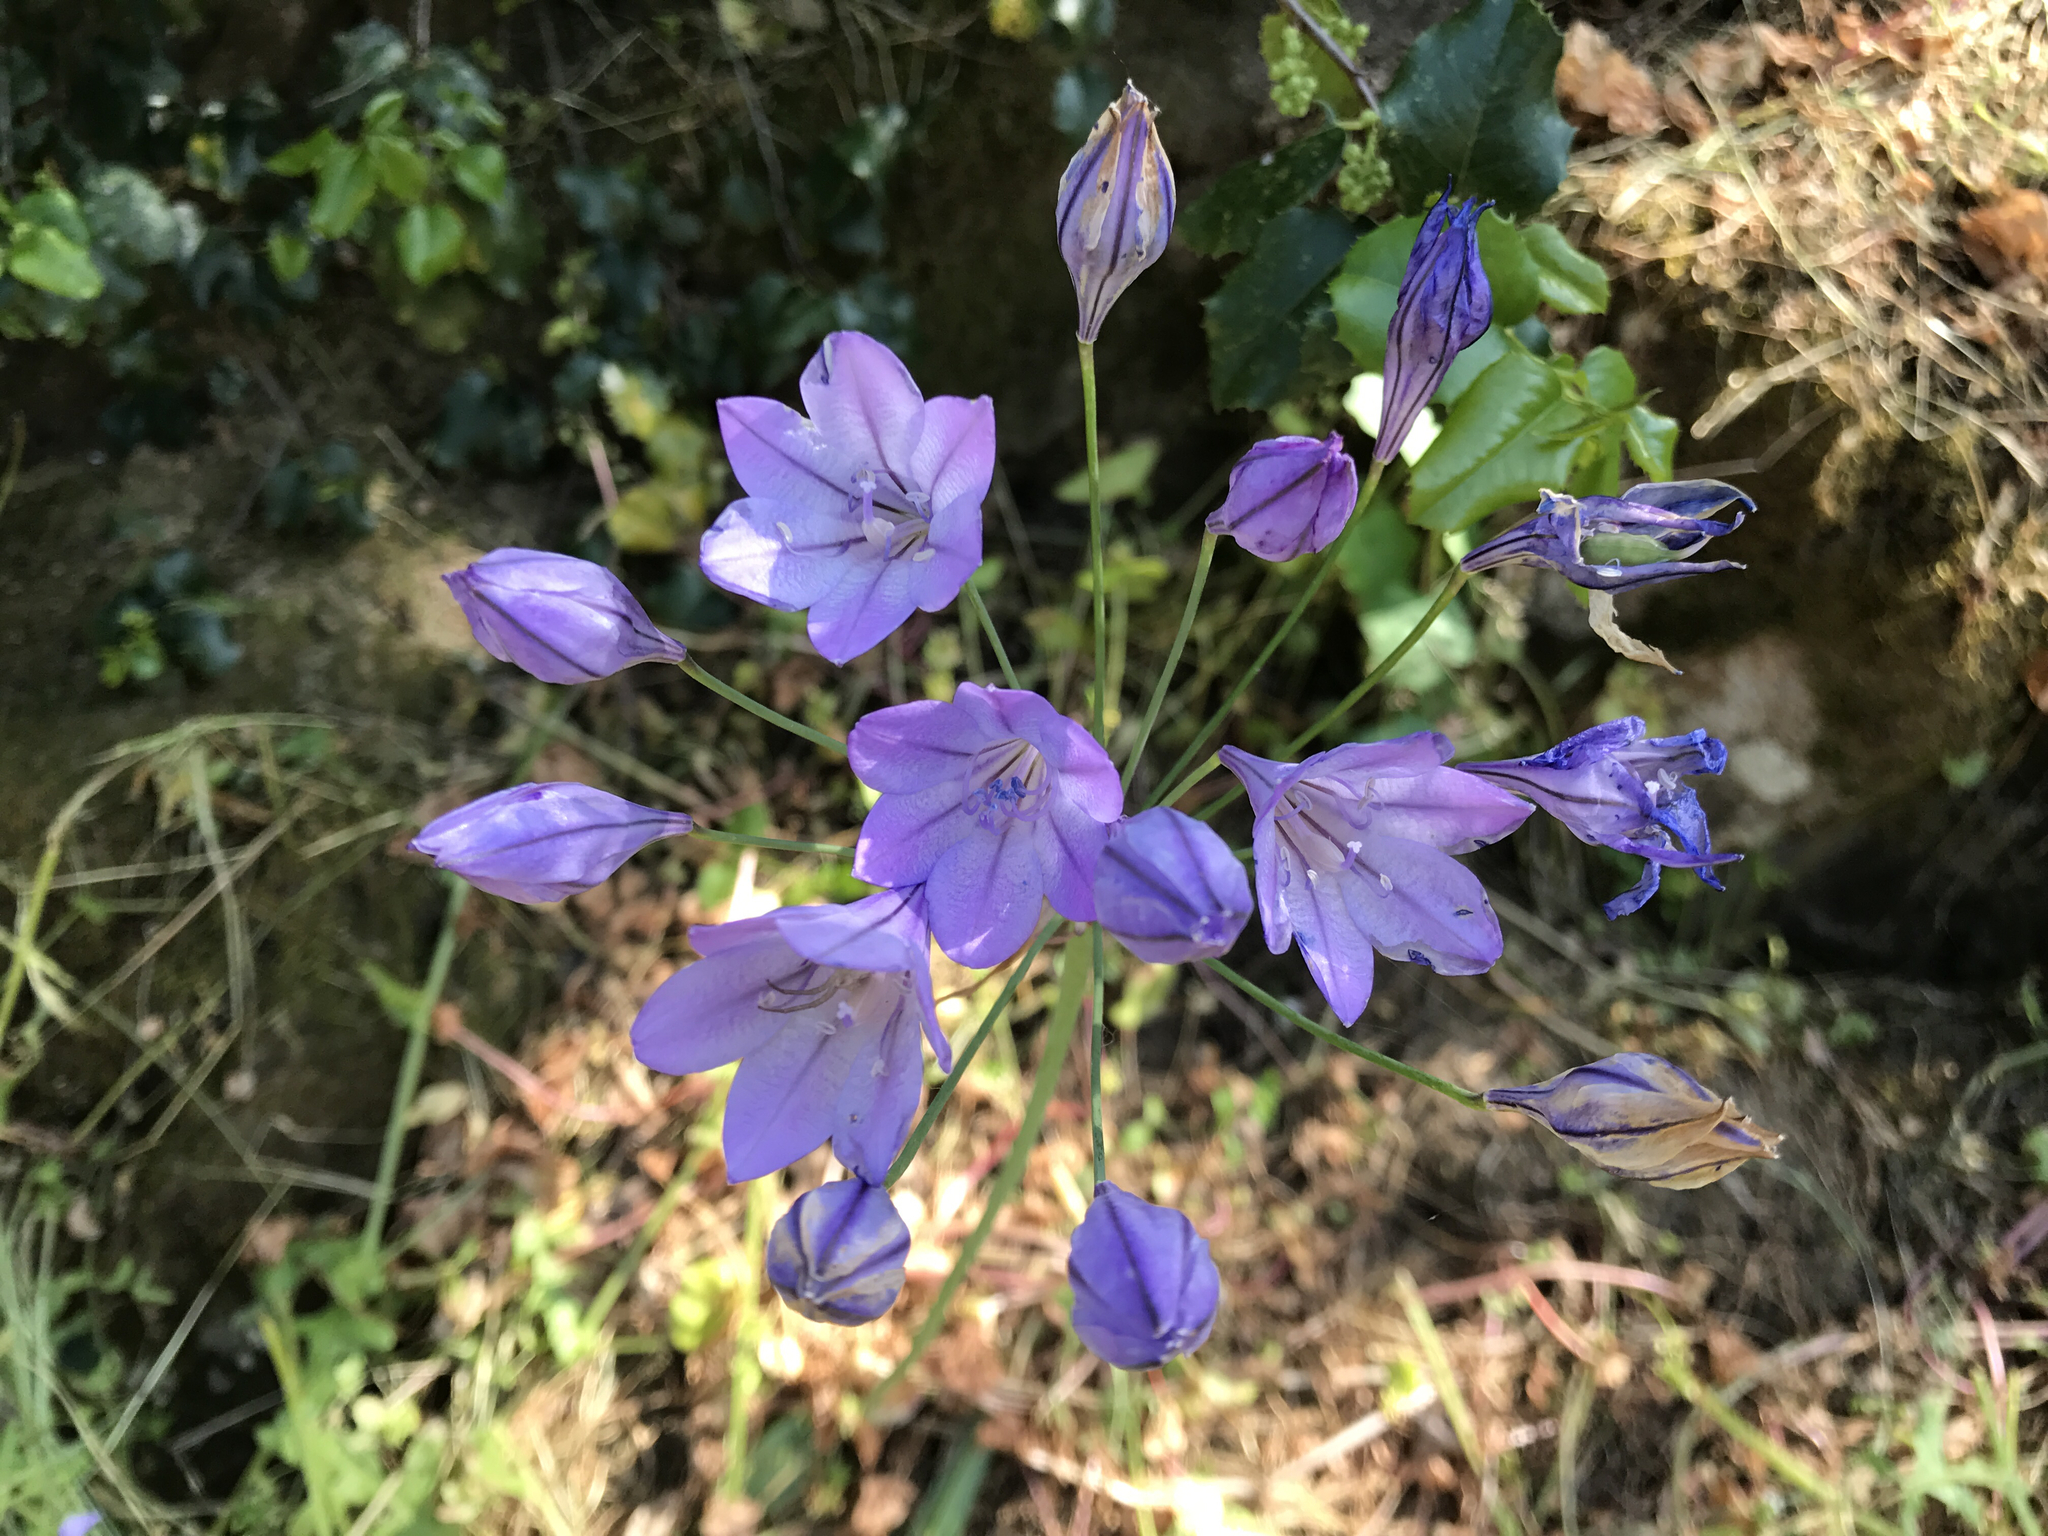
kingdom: Plantae
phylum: Tracheophyta
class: Liliopsida
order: Asparagales
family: Asparagaceae
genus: Triteleia
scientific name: Triteleia laxa
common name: Triplet-lily
